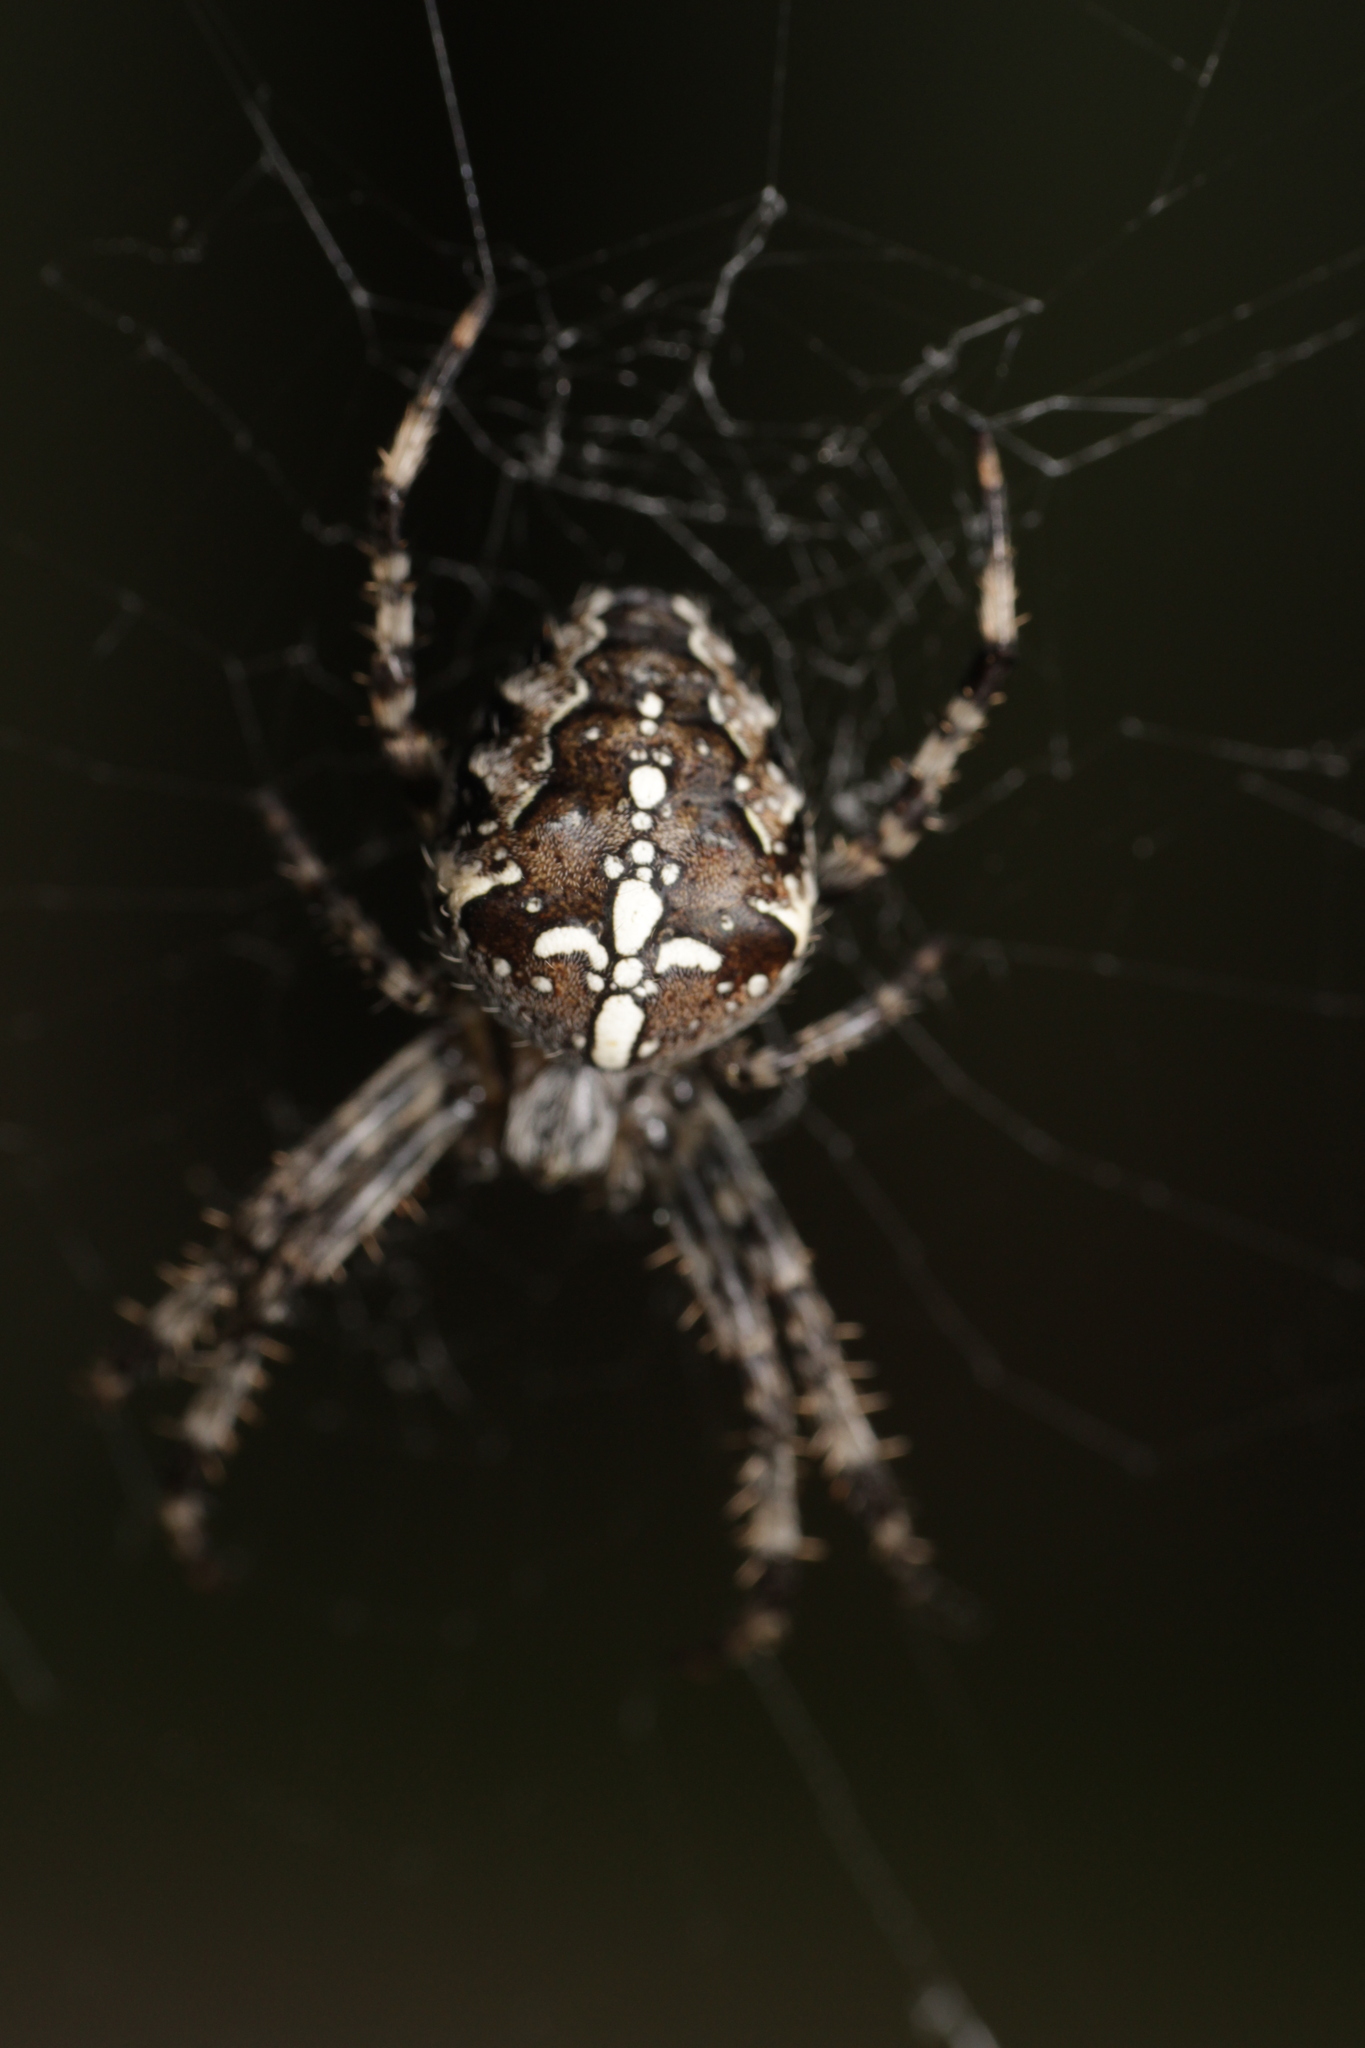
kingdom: Animalia
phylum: Arthropoda
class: Arachnida
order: Araneae
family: Araneidae
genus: Araneus
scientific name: Araneus diadematus
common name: Cross orbweaver
